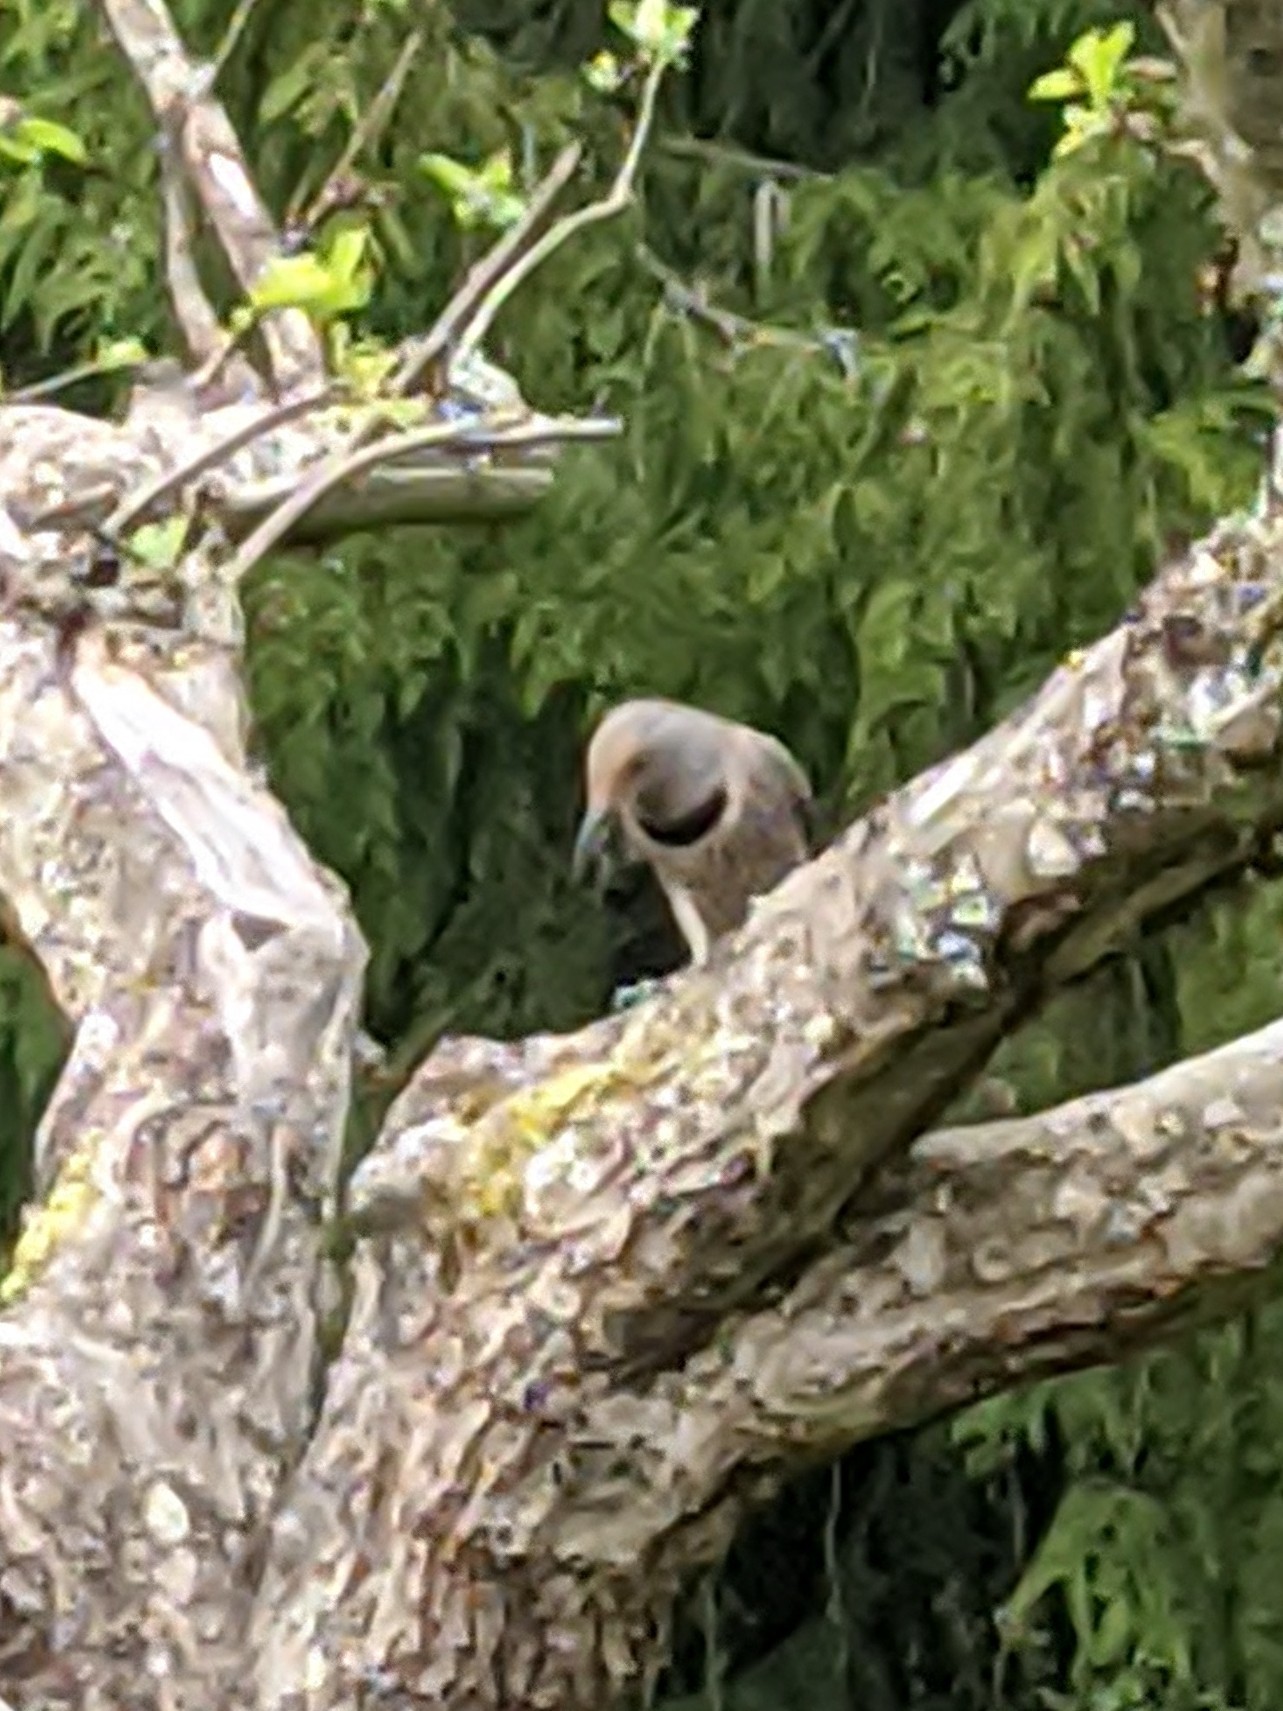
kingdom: Animalia
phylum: Chordata
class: Aves
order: Piciformes
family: Picidae
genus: Colaptes
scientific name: Colaptes auratus
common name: Northern flicker
